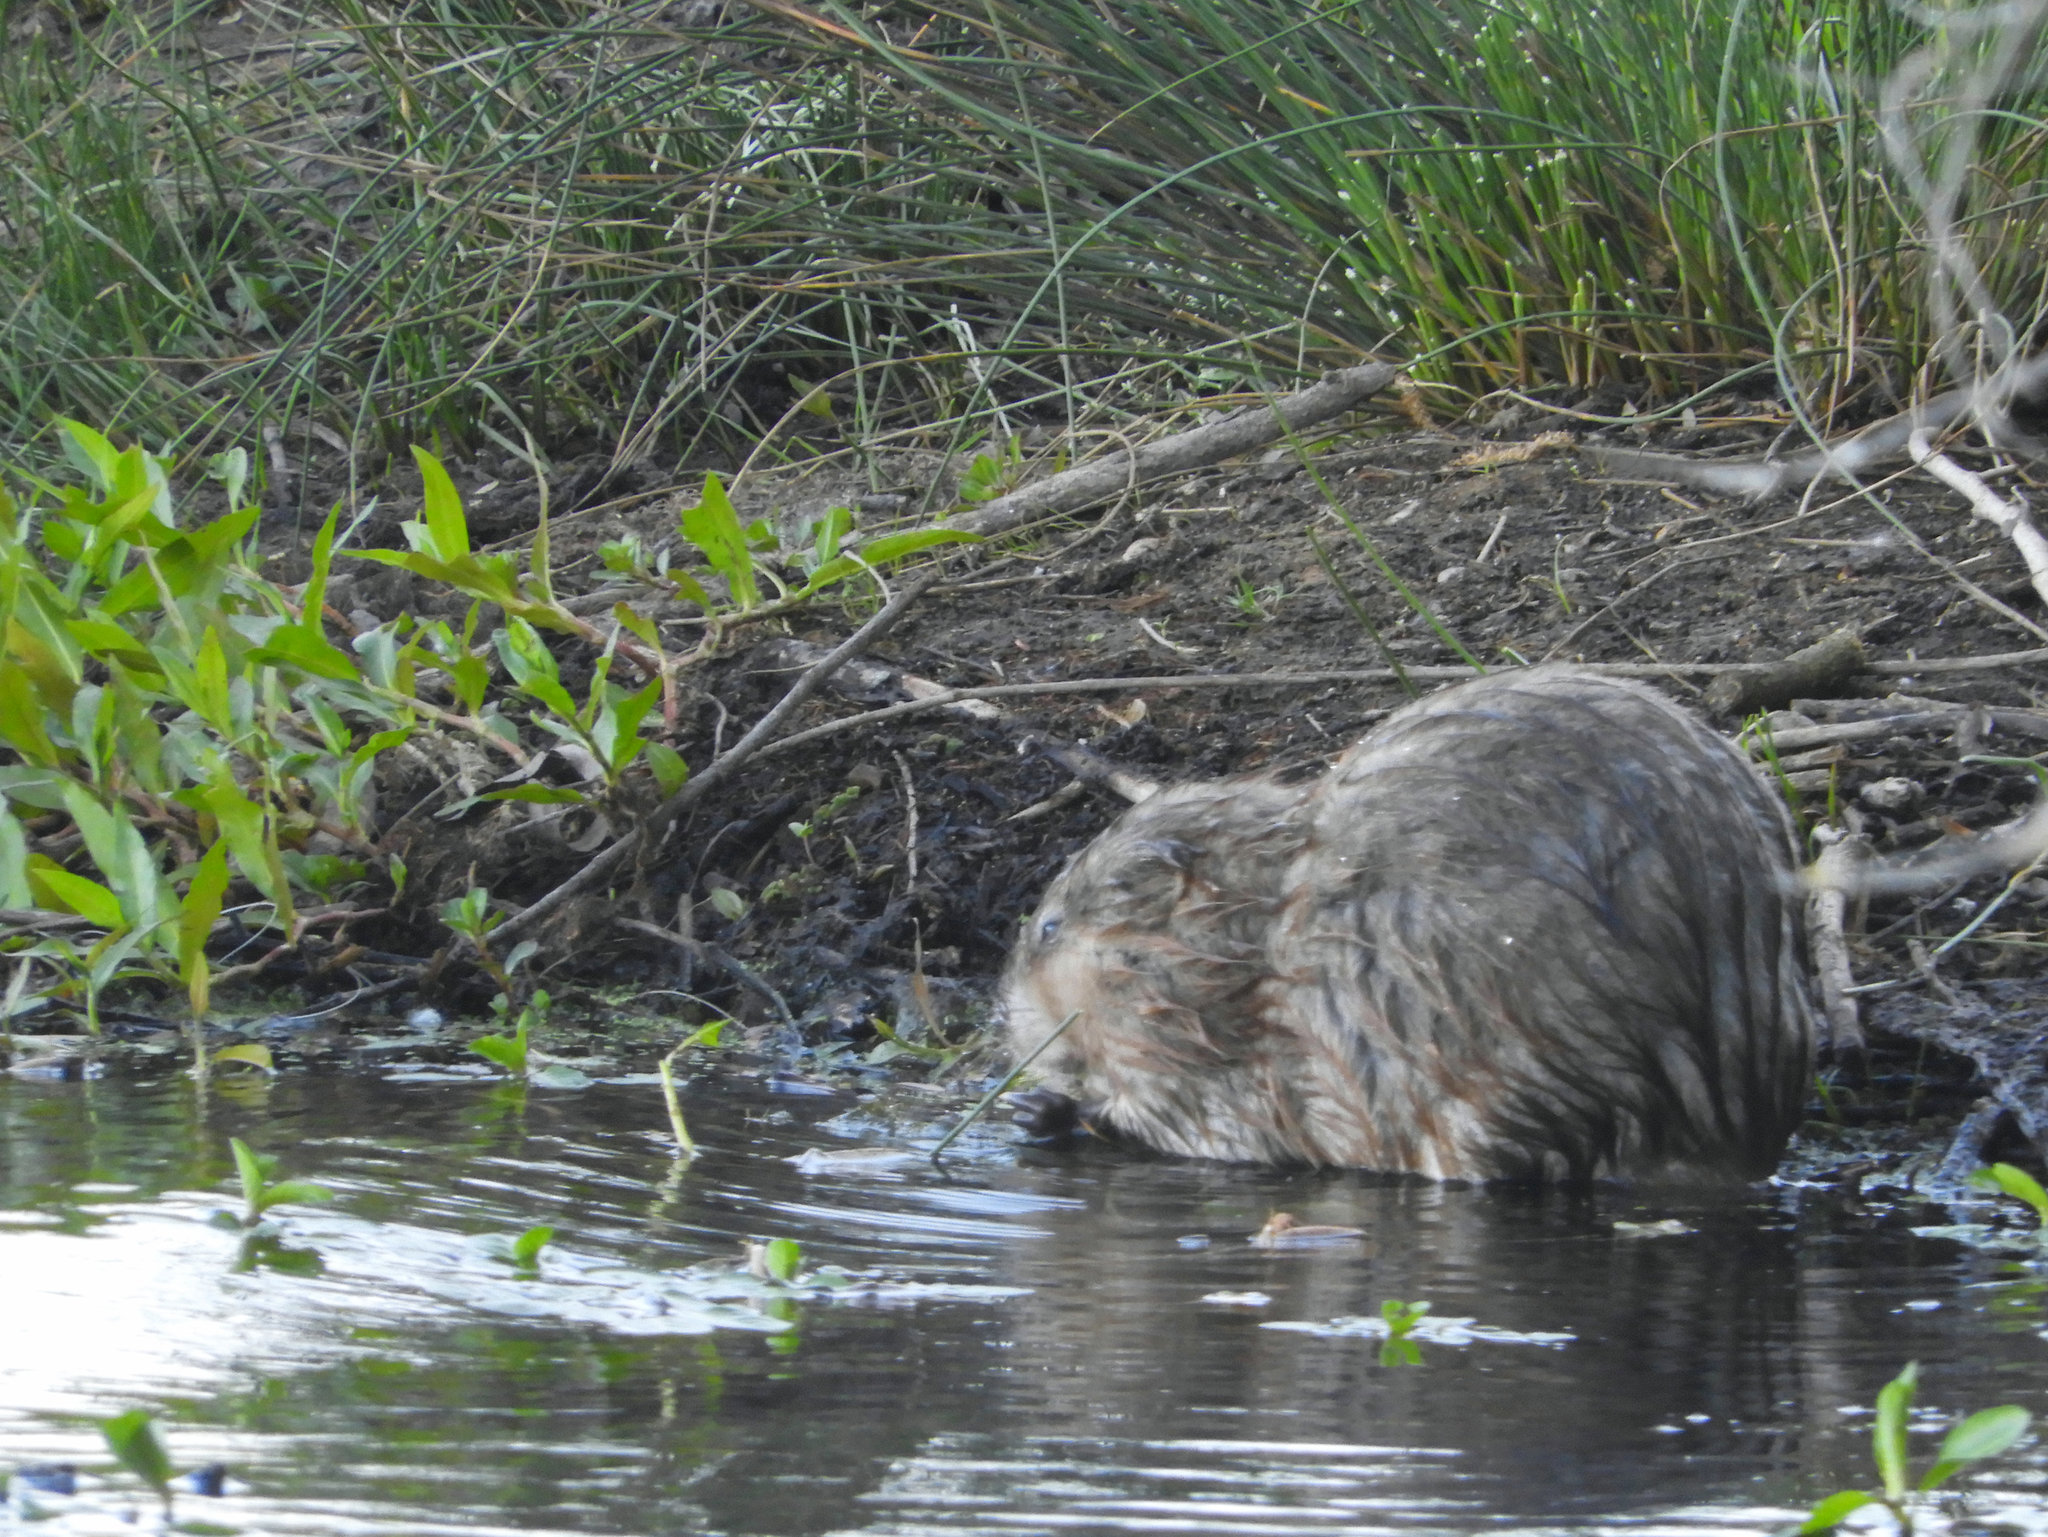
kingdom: Animalia
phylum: Chordata
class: Mammalia
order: Rodentia
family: Cricetidae
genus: Ondatra
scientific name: Ondatra zibethicus
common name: Muskrat
